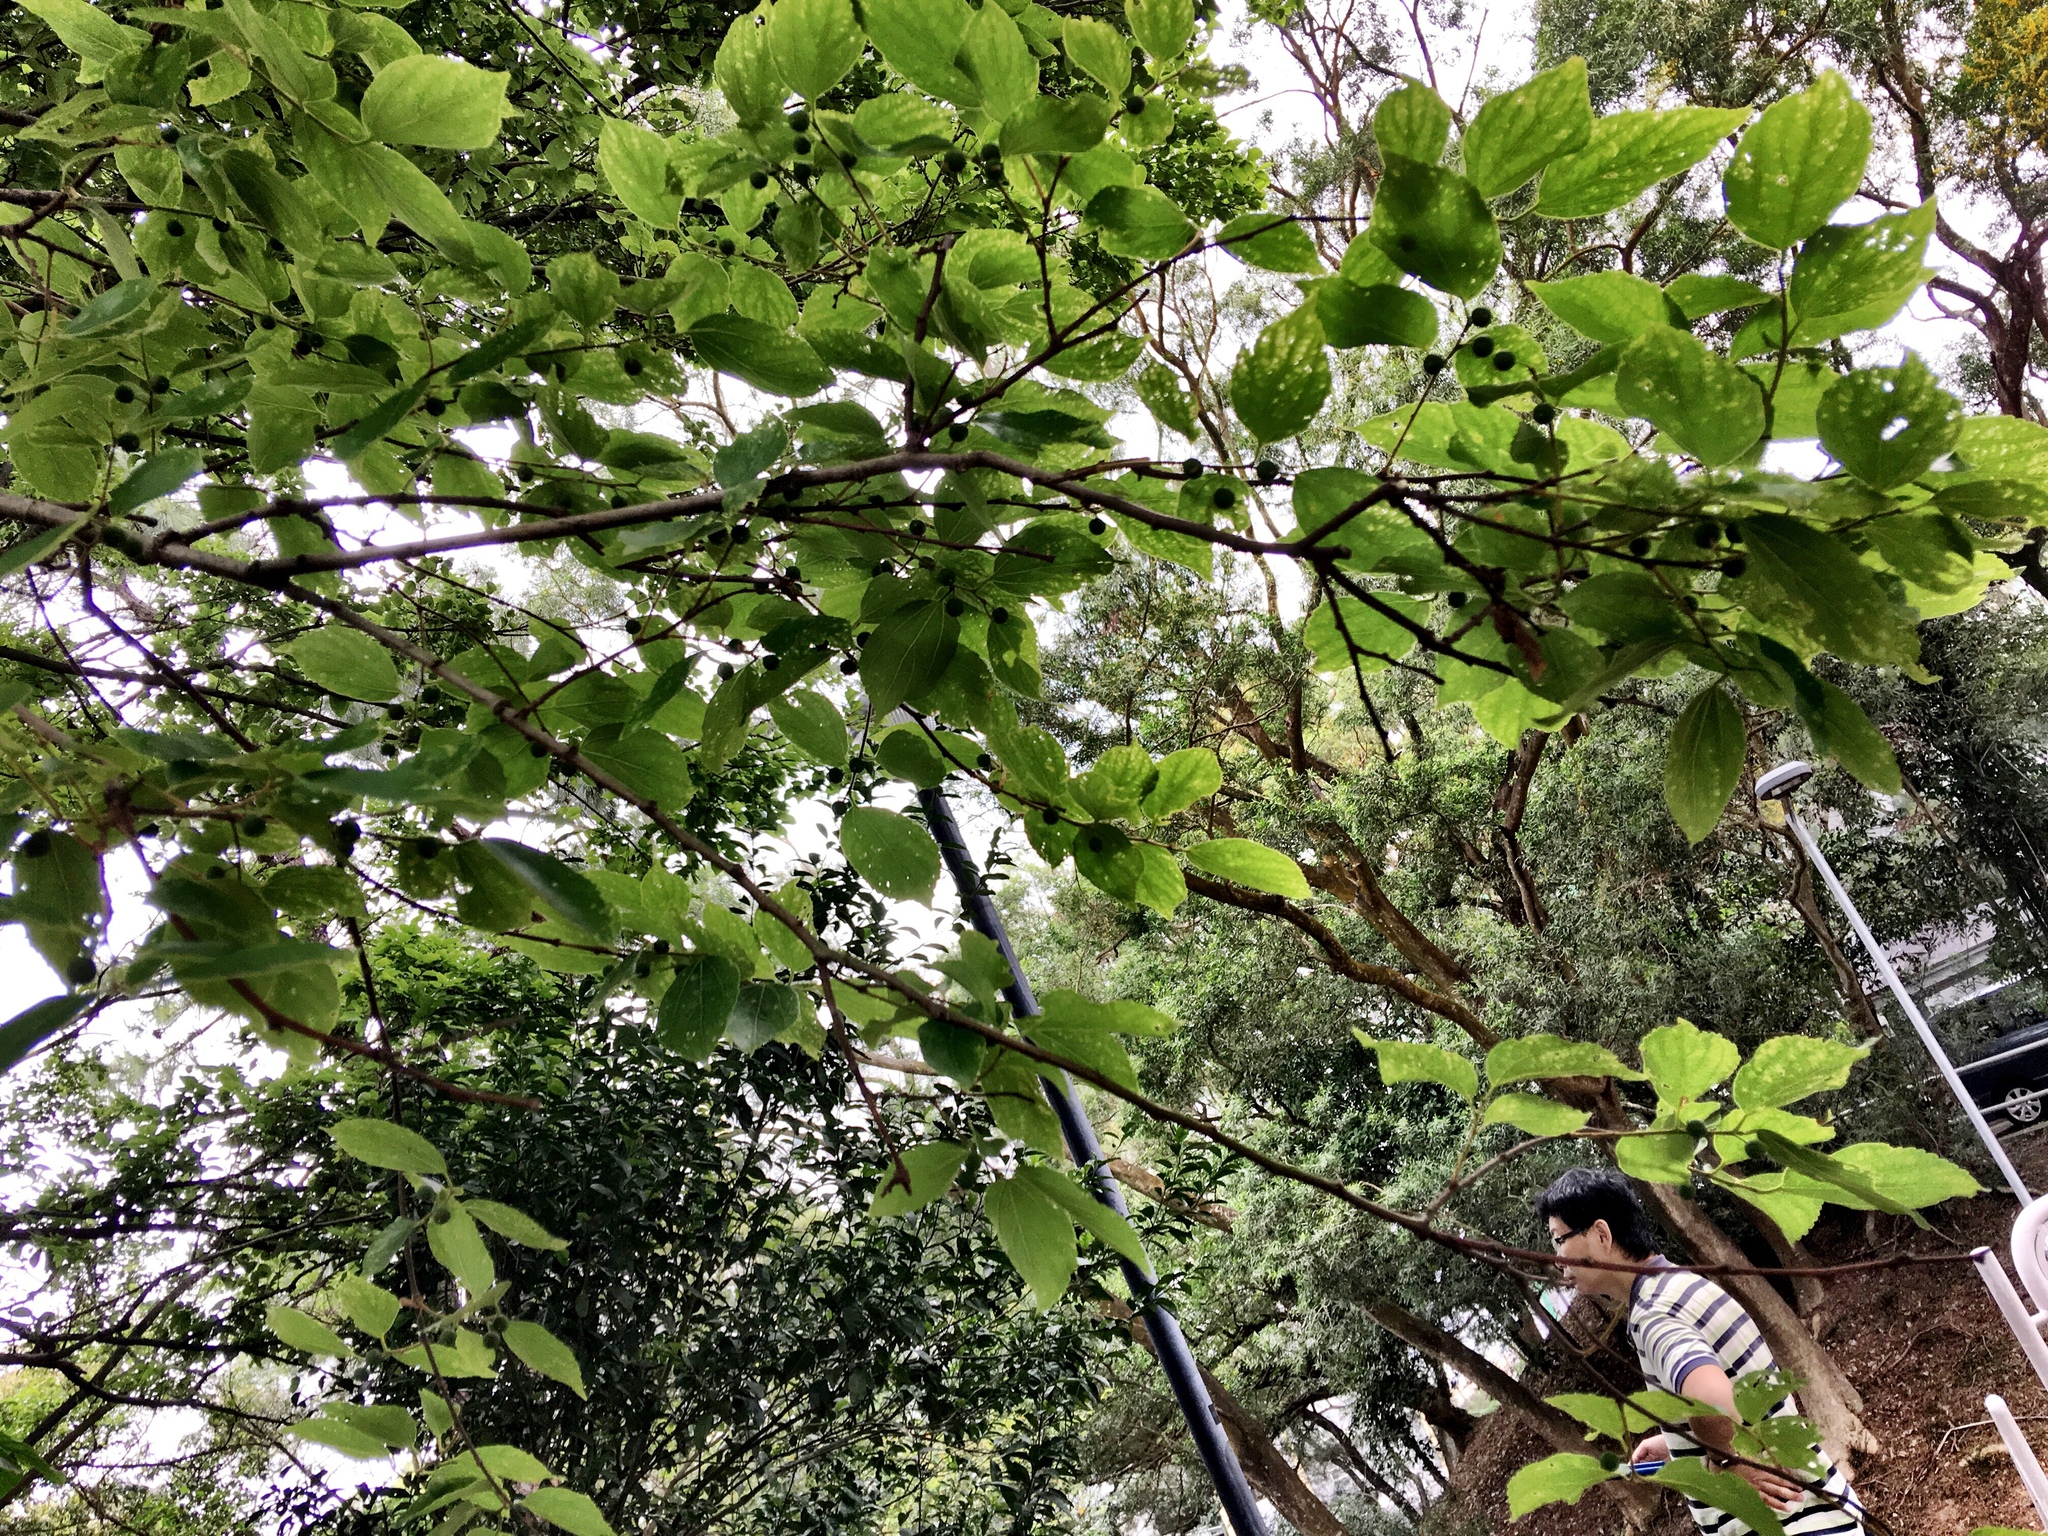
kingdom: Plantae
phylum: Tracheophyta
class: Magnoliopsida
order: Rosales
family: Cannabaceae
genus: Celtis
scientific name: Celtis sinensis
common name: Chinese hackberry
